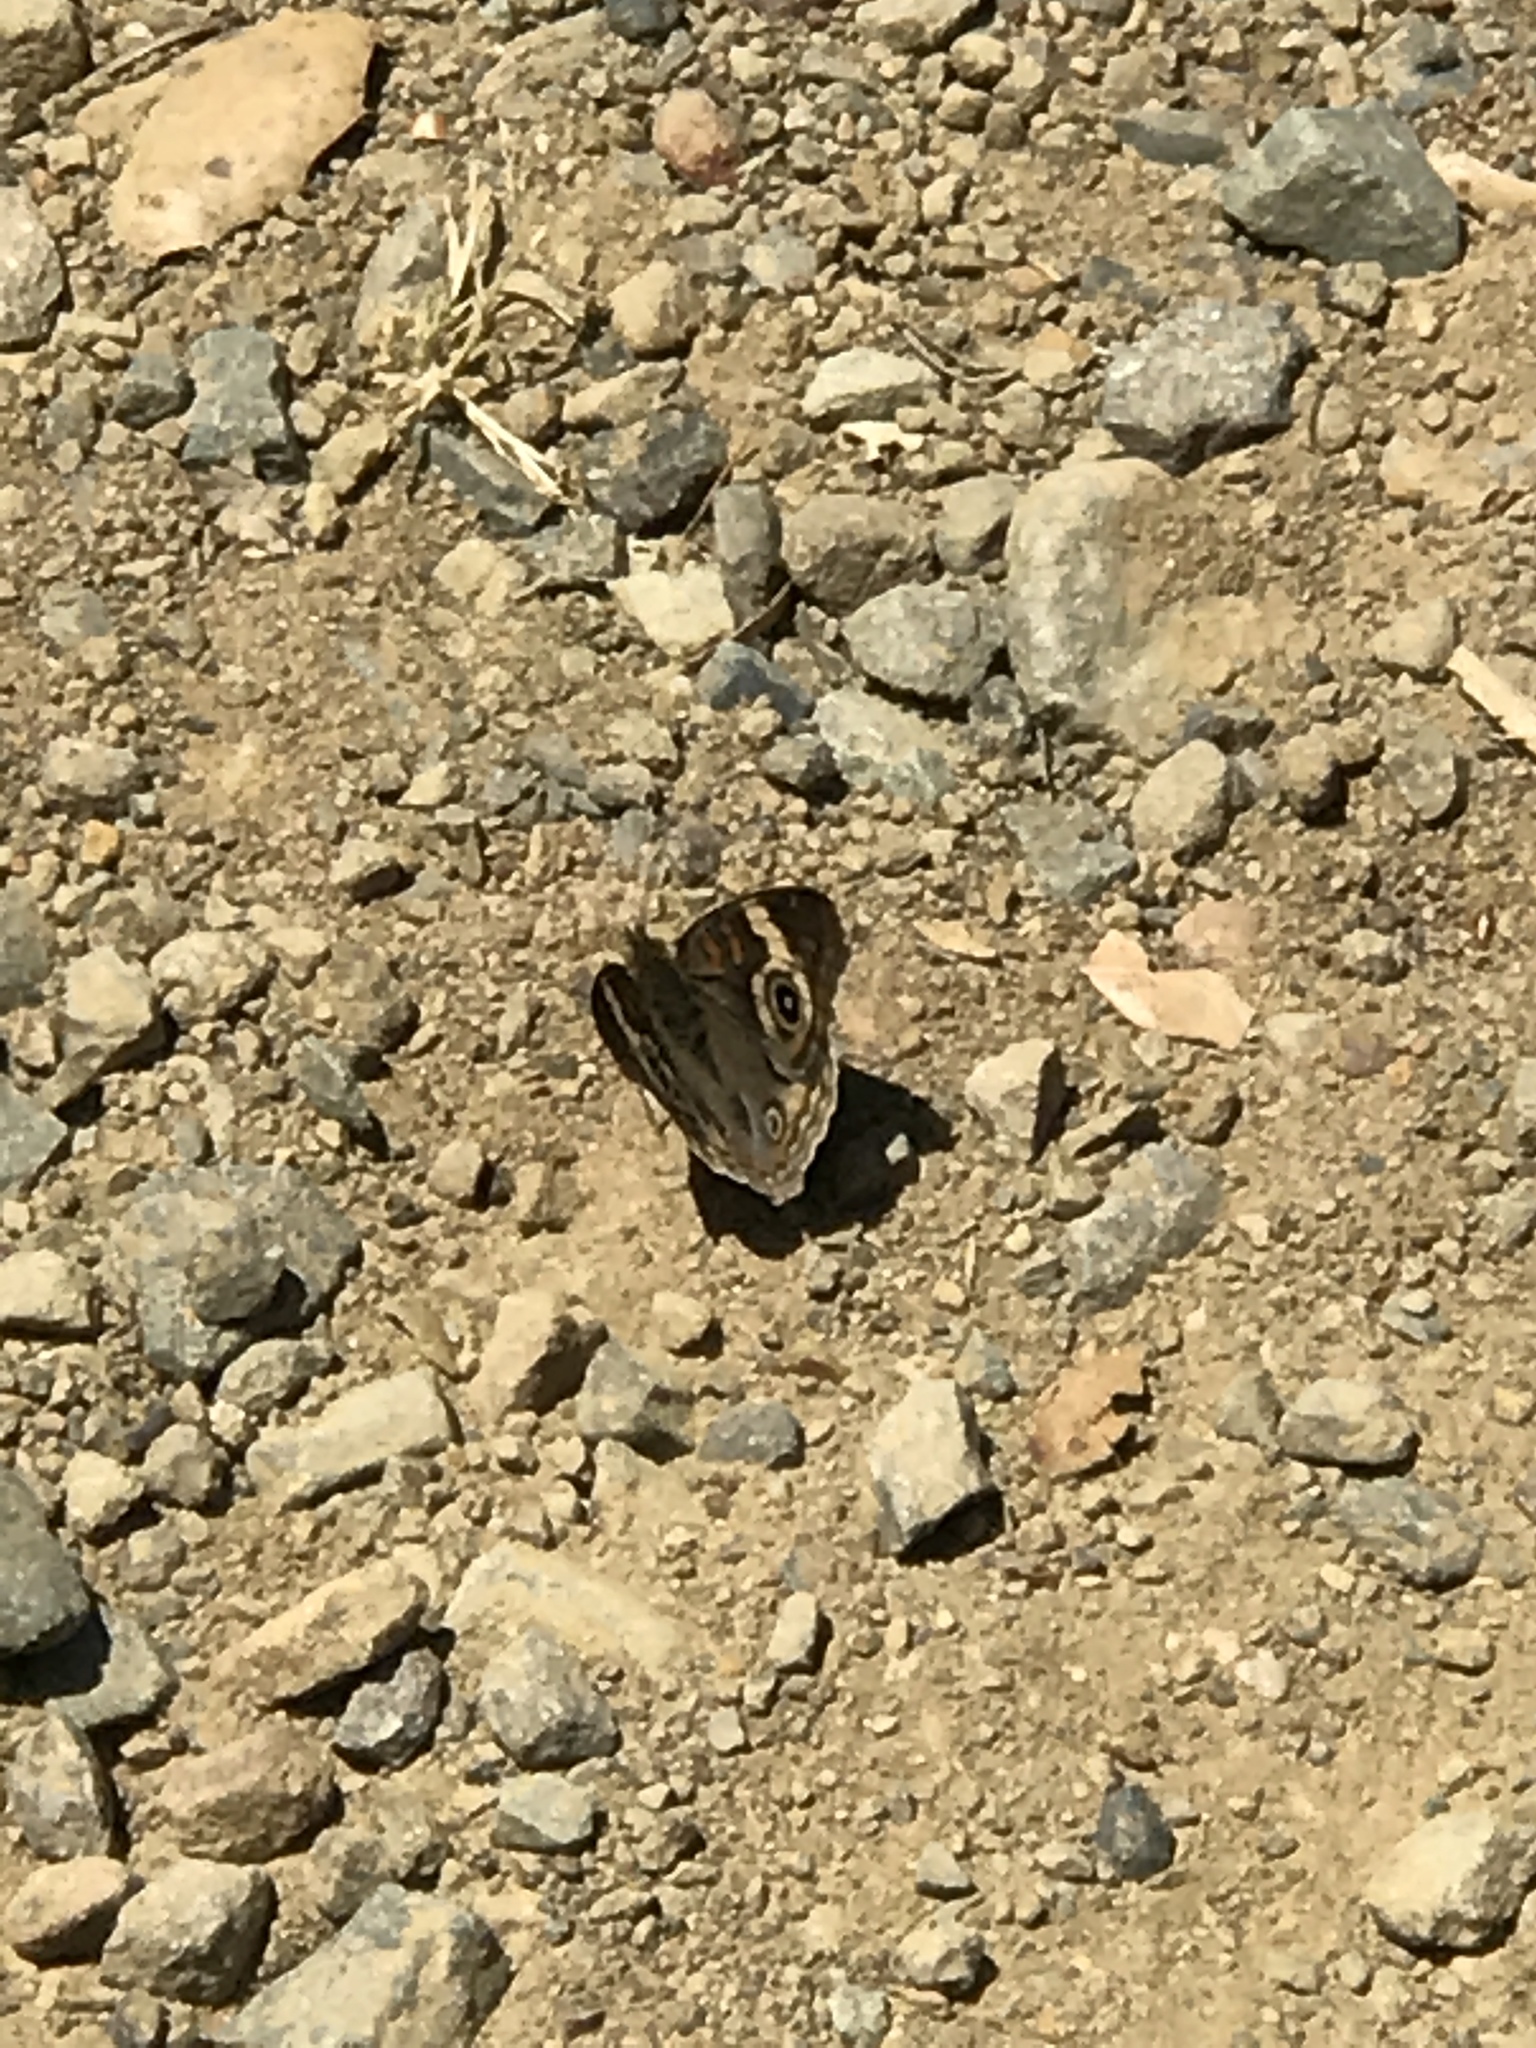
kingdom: Animalia
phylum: Arthropoda
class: Insecta
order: Lepidoptera
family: Nymphalidae
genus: Junonia
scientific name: Junonia grisea
